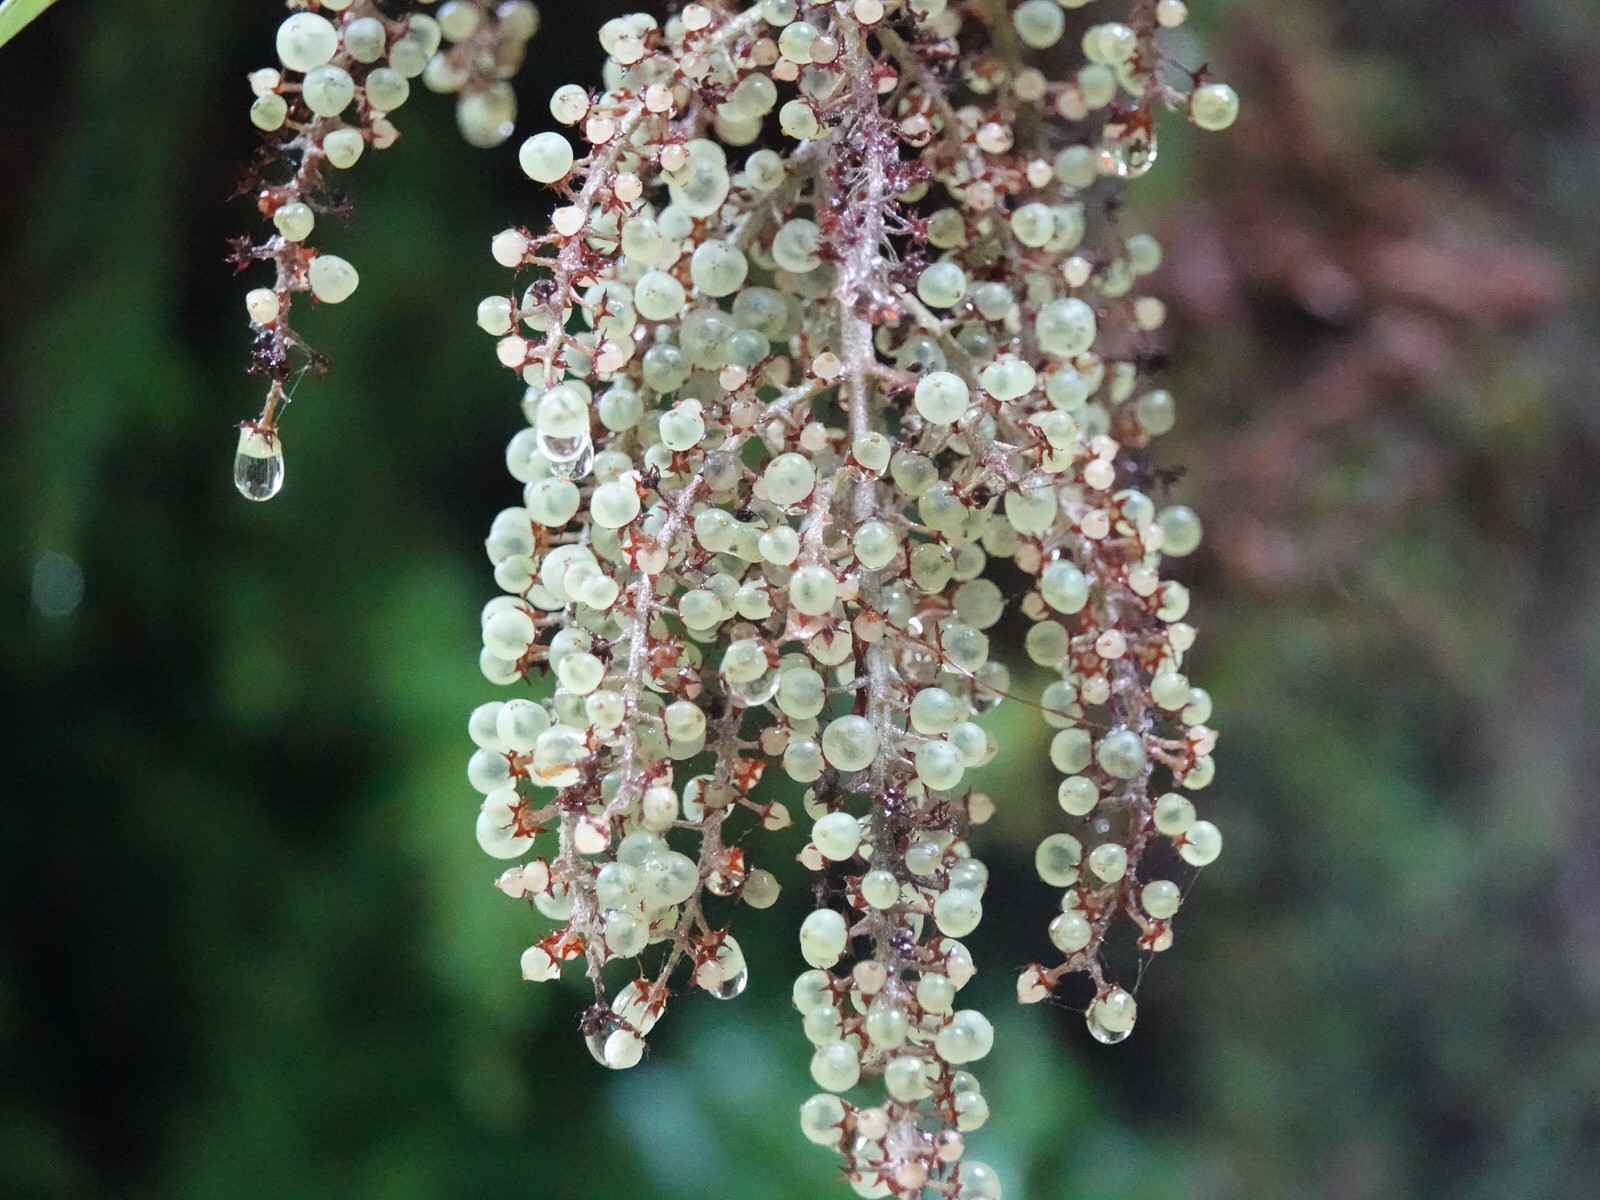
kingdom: Plantae
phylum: Tracheophyta
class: Liliopsida
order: Asparagales
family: Asteliaceae
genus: Astelia
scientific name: Astelia solandri
